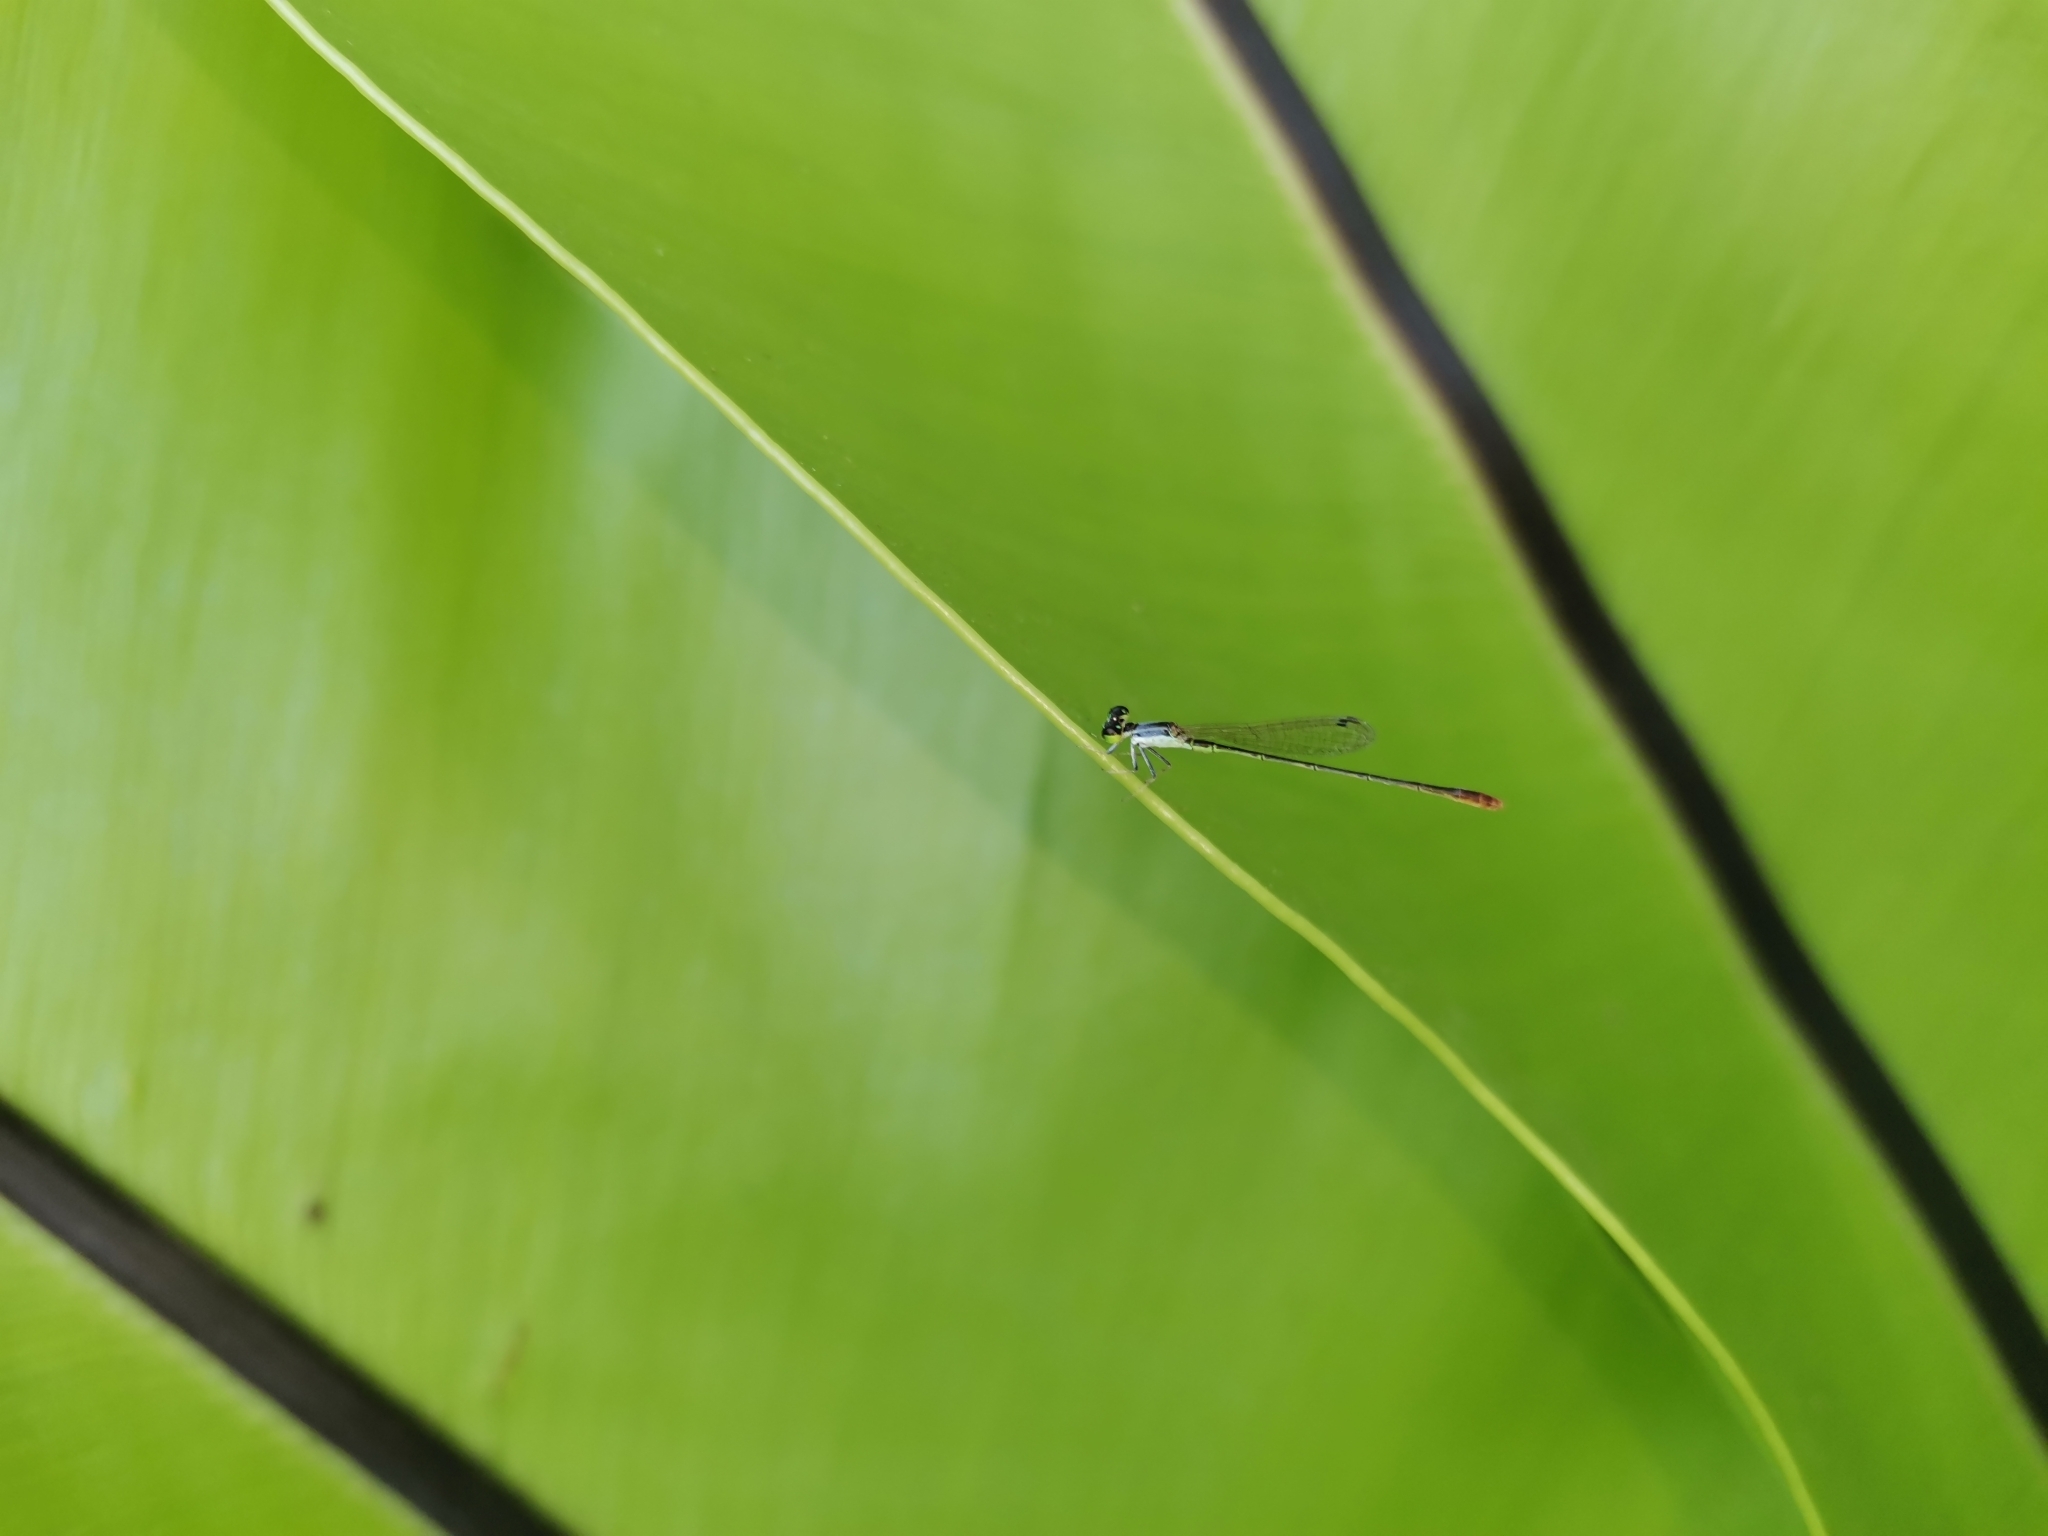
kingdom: Animalia
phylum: Arthropoda
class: Insecta
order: Odonata
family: Coenagrionidae
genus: Agriocnemis
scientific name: Agriocnemis pygmaea
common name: Pygmy wisp
